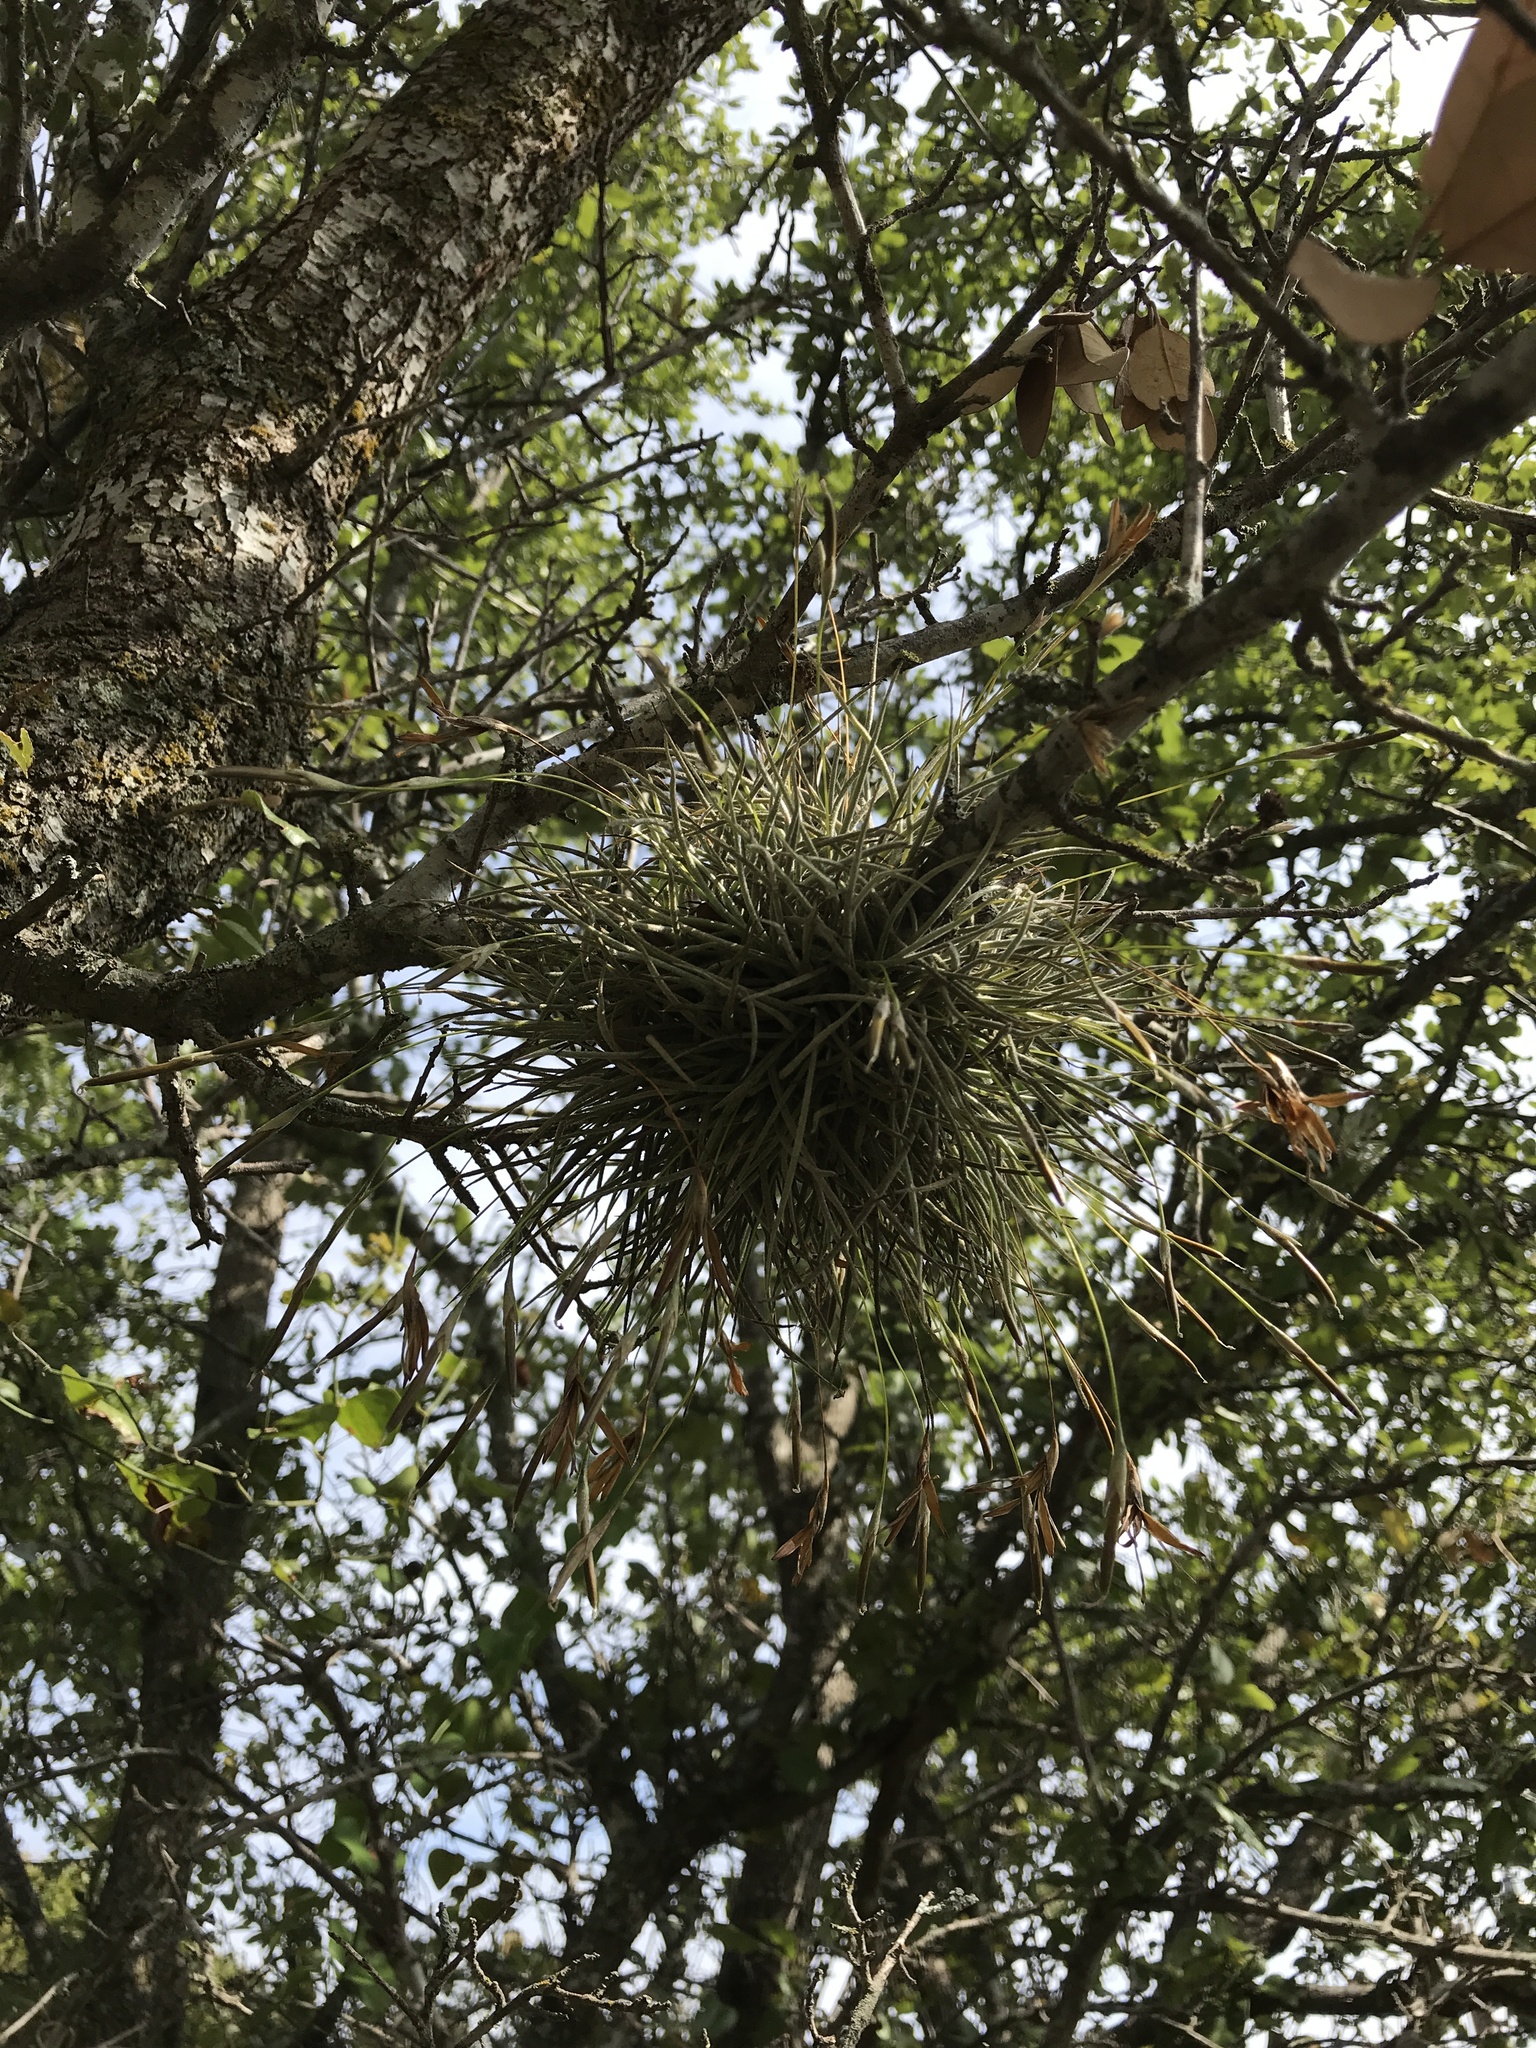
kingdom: Plantae
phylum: Tracheophyta
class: Liliopsida
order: Poales
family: Bromeliaceae
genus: Tillandsia
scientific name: Tillandsia recurvata
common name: Small ballmoss
